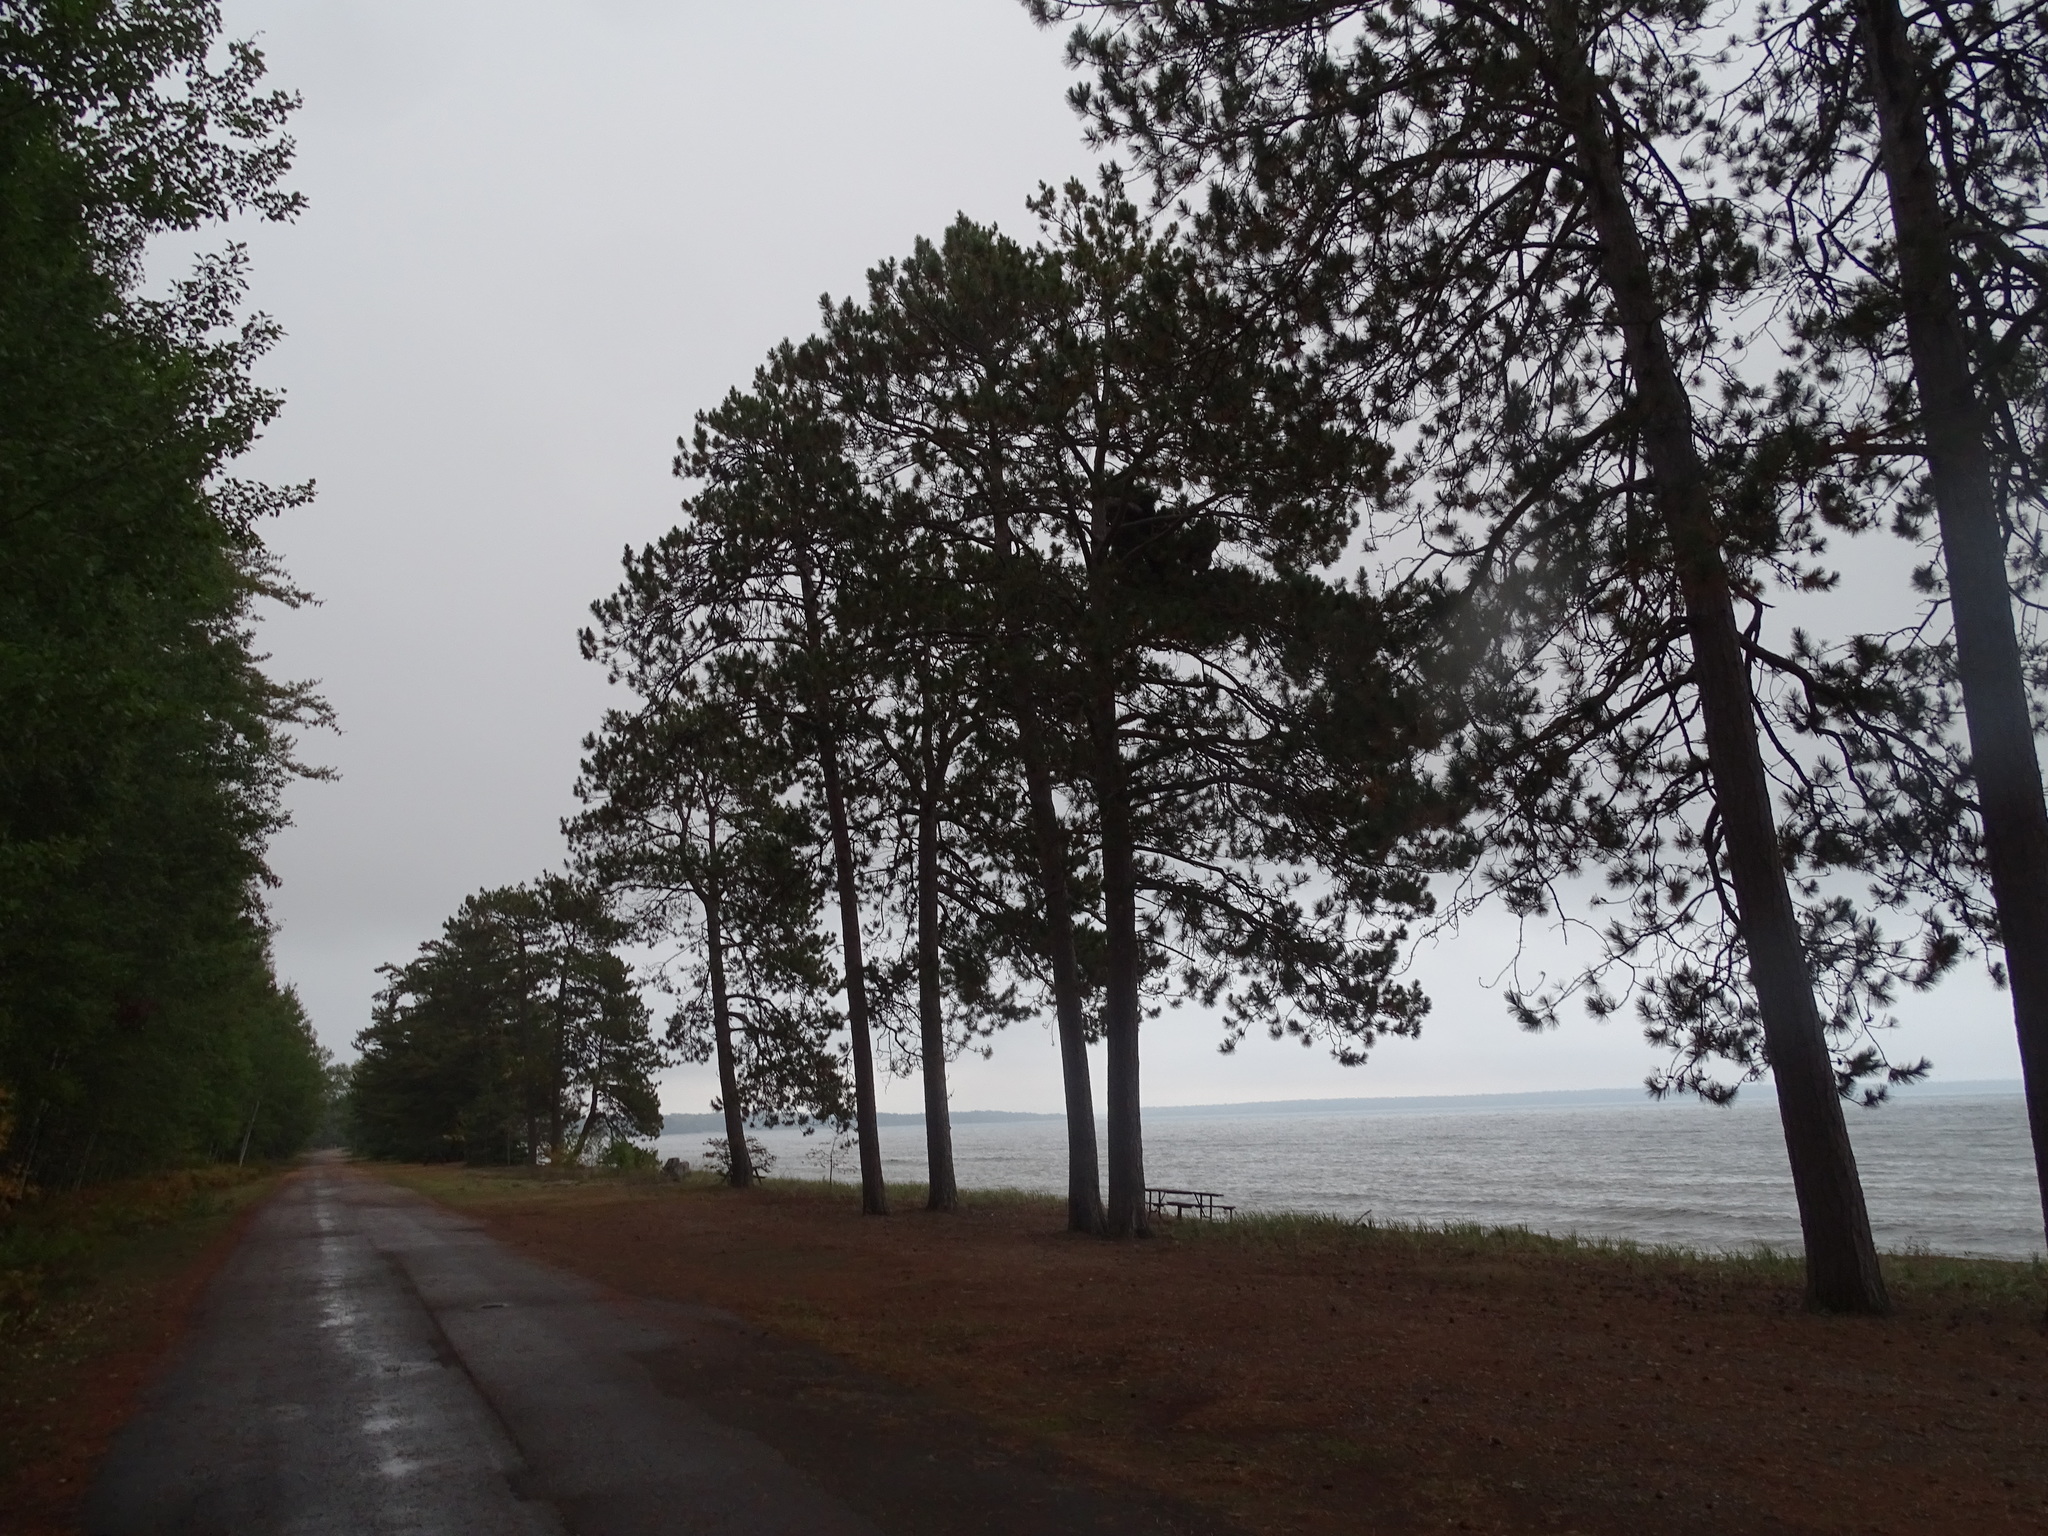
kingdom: Plantae
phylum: Tracheophyta
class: Pinopsida
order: Pinales
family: Pinaceae
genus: Pinus
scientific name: Pinus resinosa
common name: Norway pine
